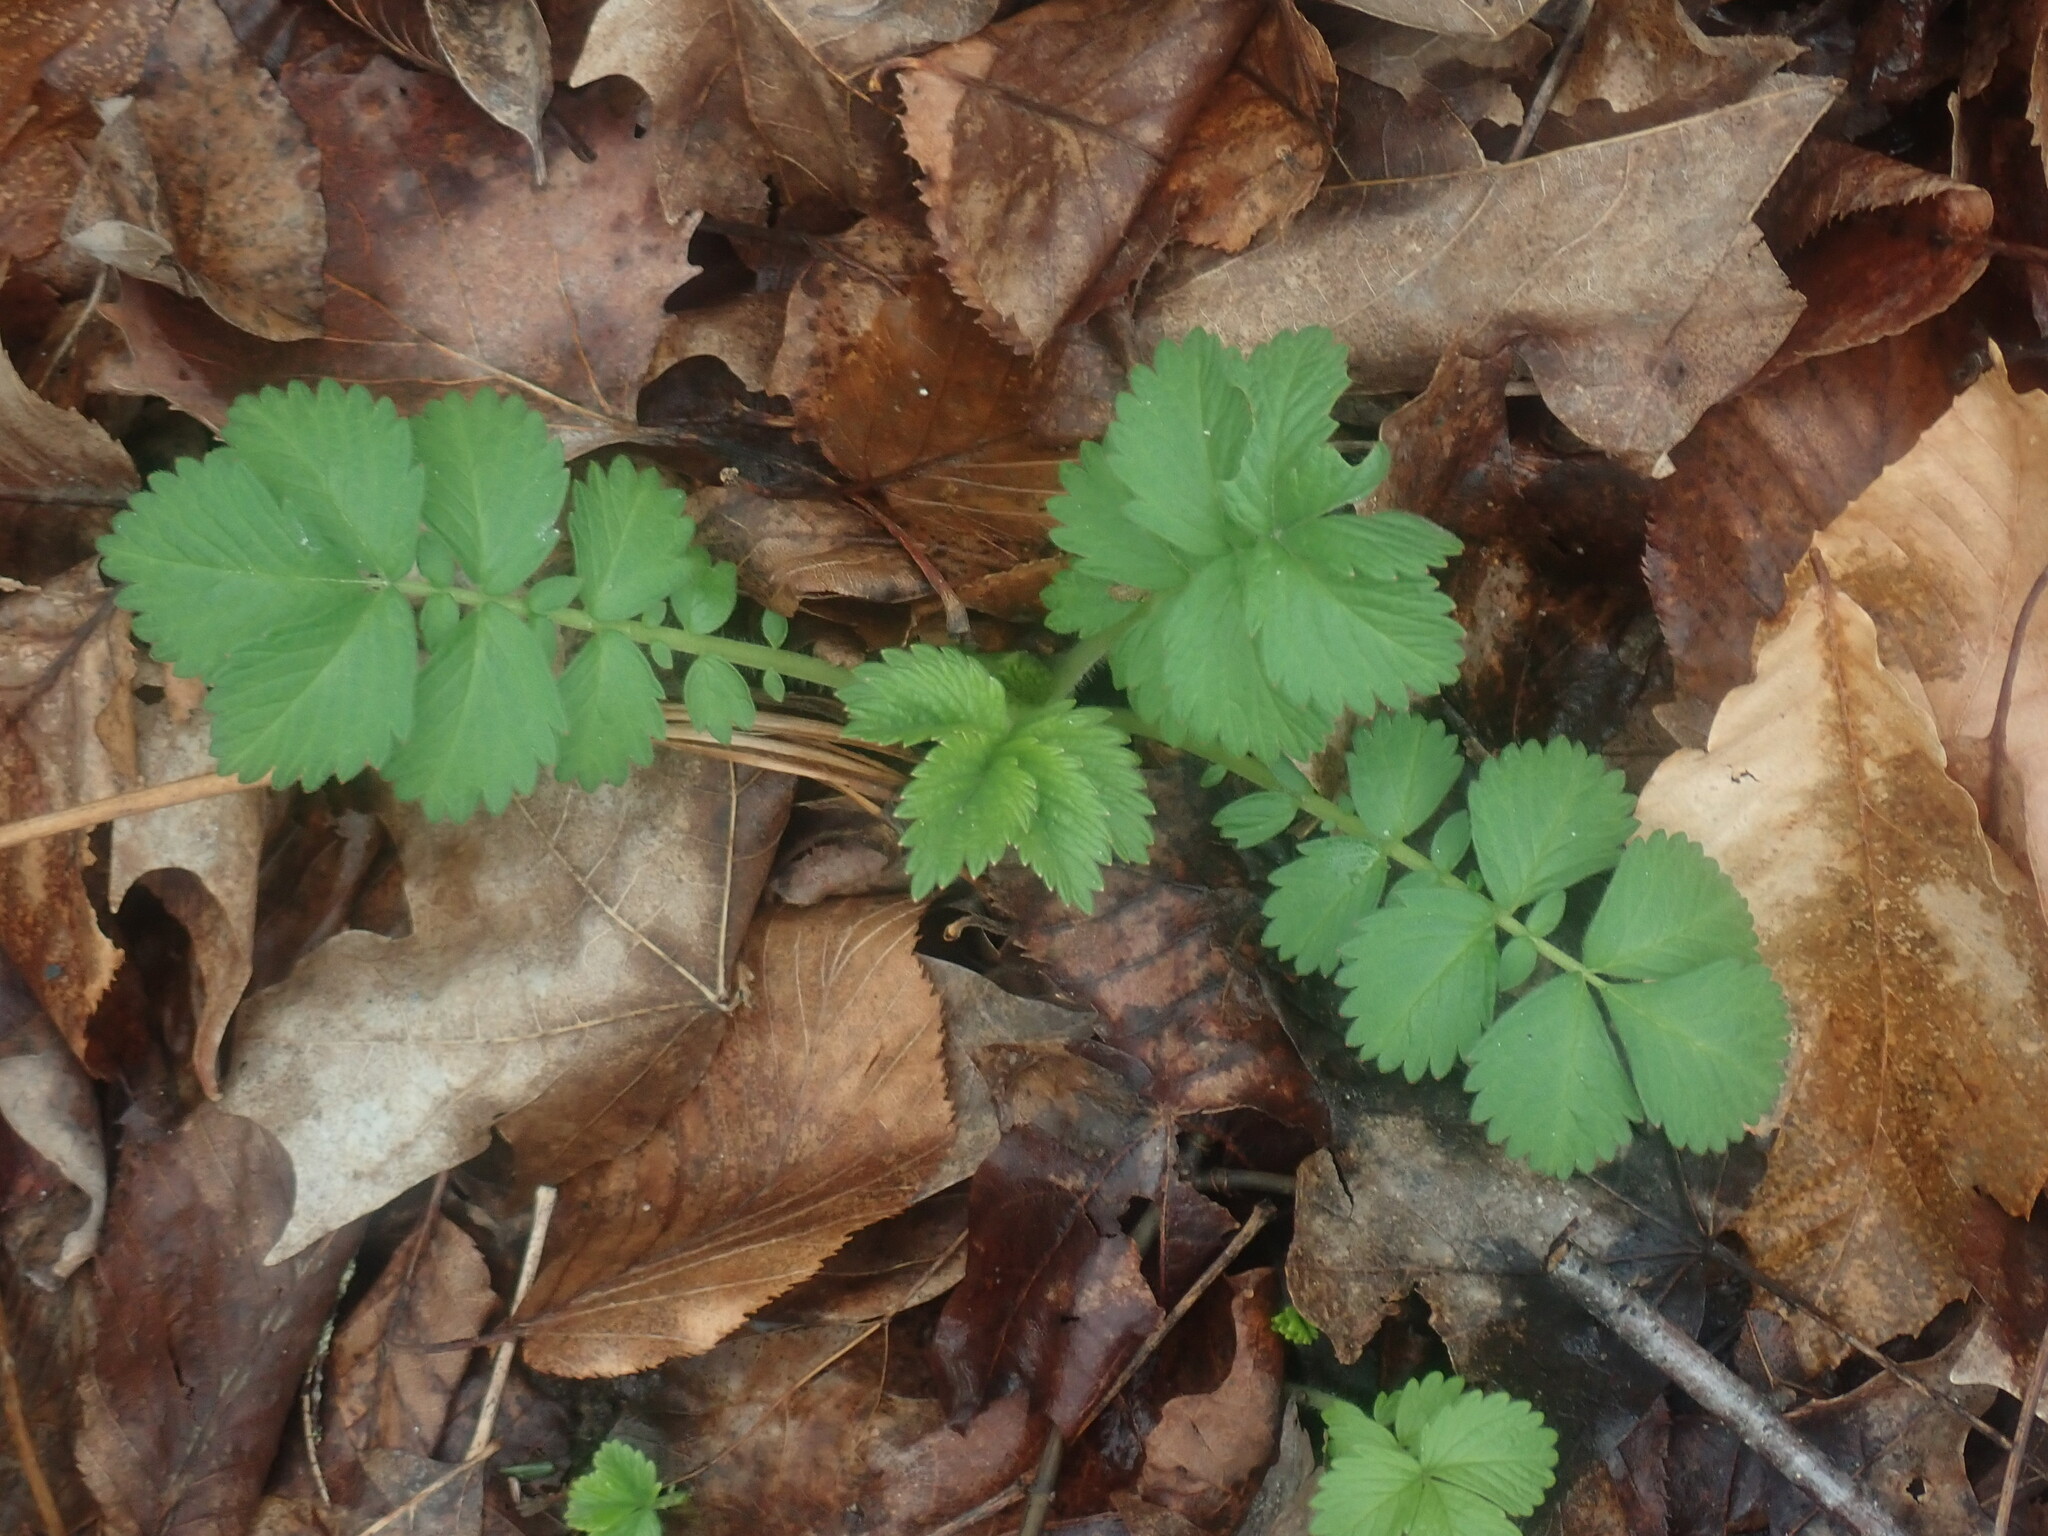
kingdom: Plantae
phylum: Tracheophyta
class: Magnoliopsida
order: Rosales
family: Rosaceae
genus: Agrimonia
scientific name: Agrimonia
